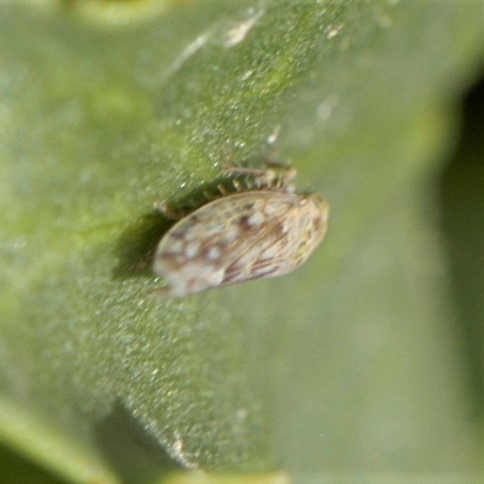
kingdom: Animalia
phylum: Arthropoda
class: Insecta
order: Hemiptera
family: Deltocephalidae
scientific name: Deltocephalidae
